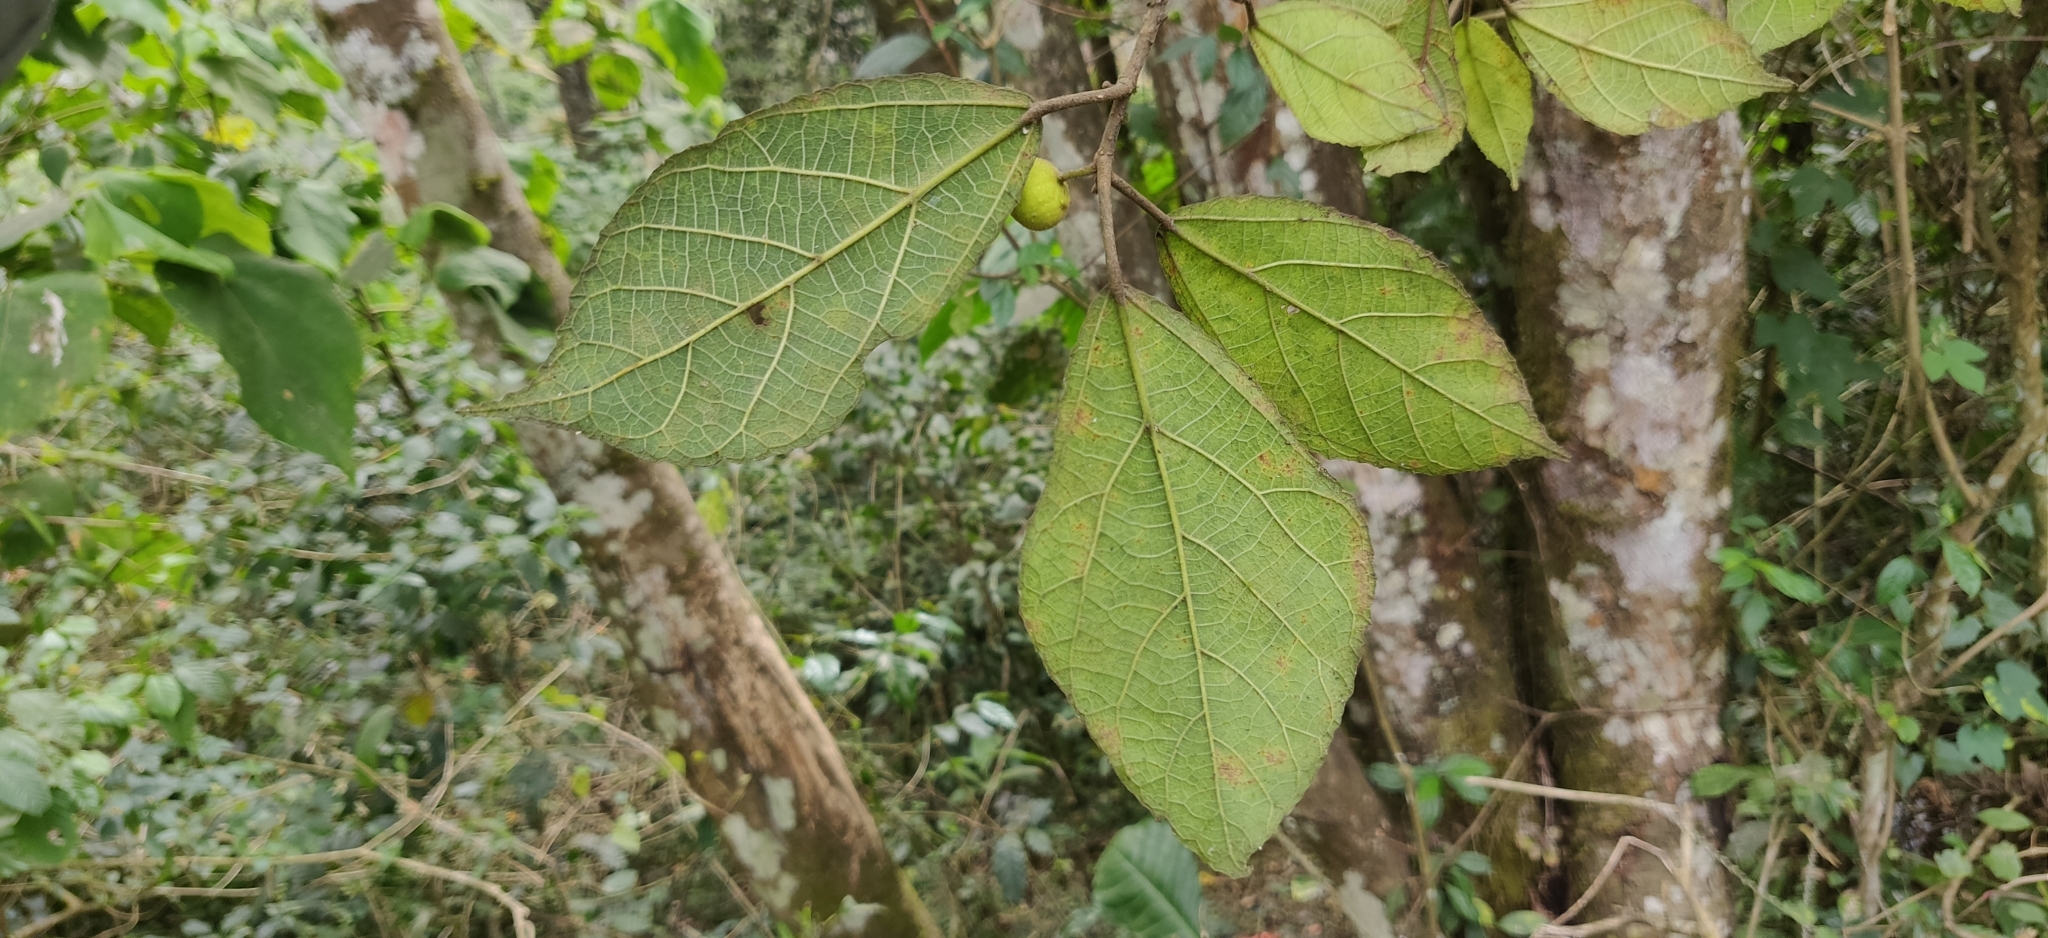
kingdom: Plantae
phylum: Tracheophyta
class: Magnoliopsida
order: Rosales
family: Moraceae
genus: Ficus
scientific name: Ficus exasperata
